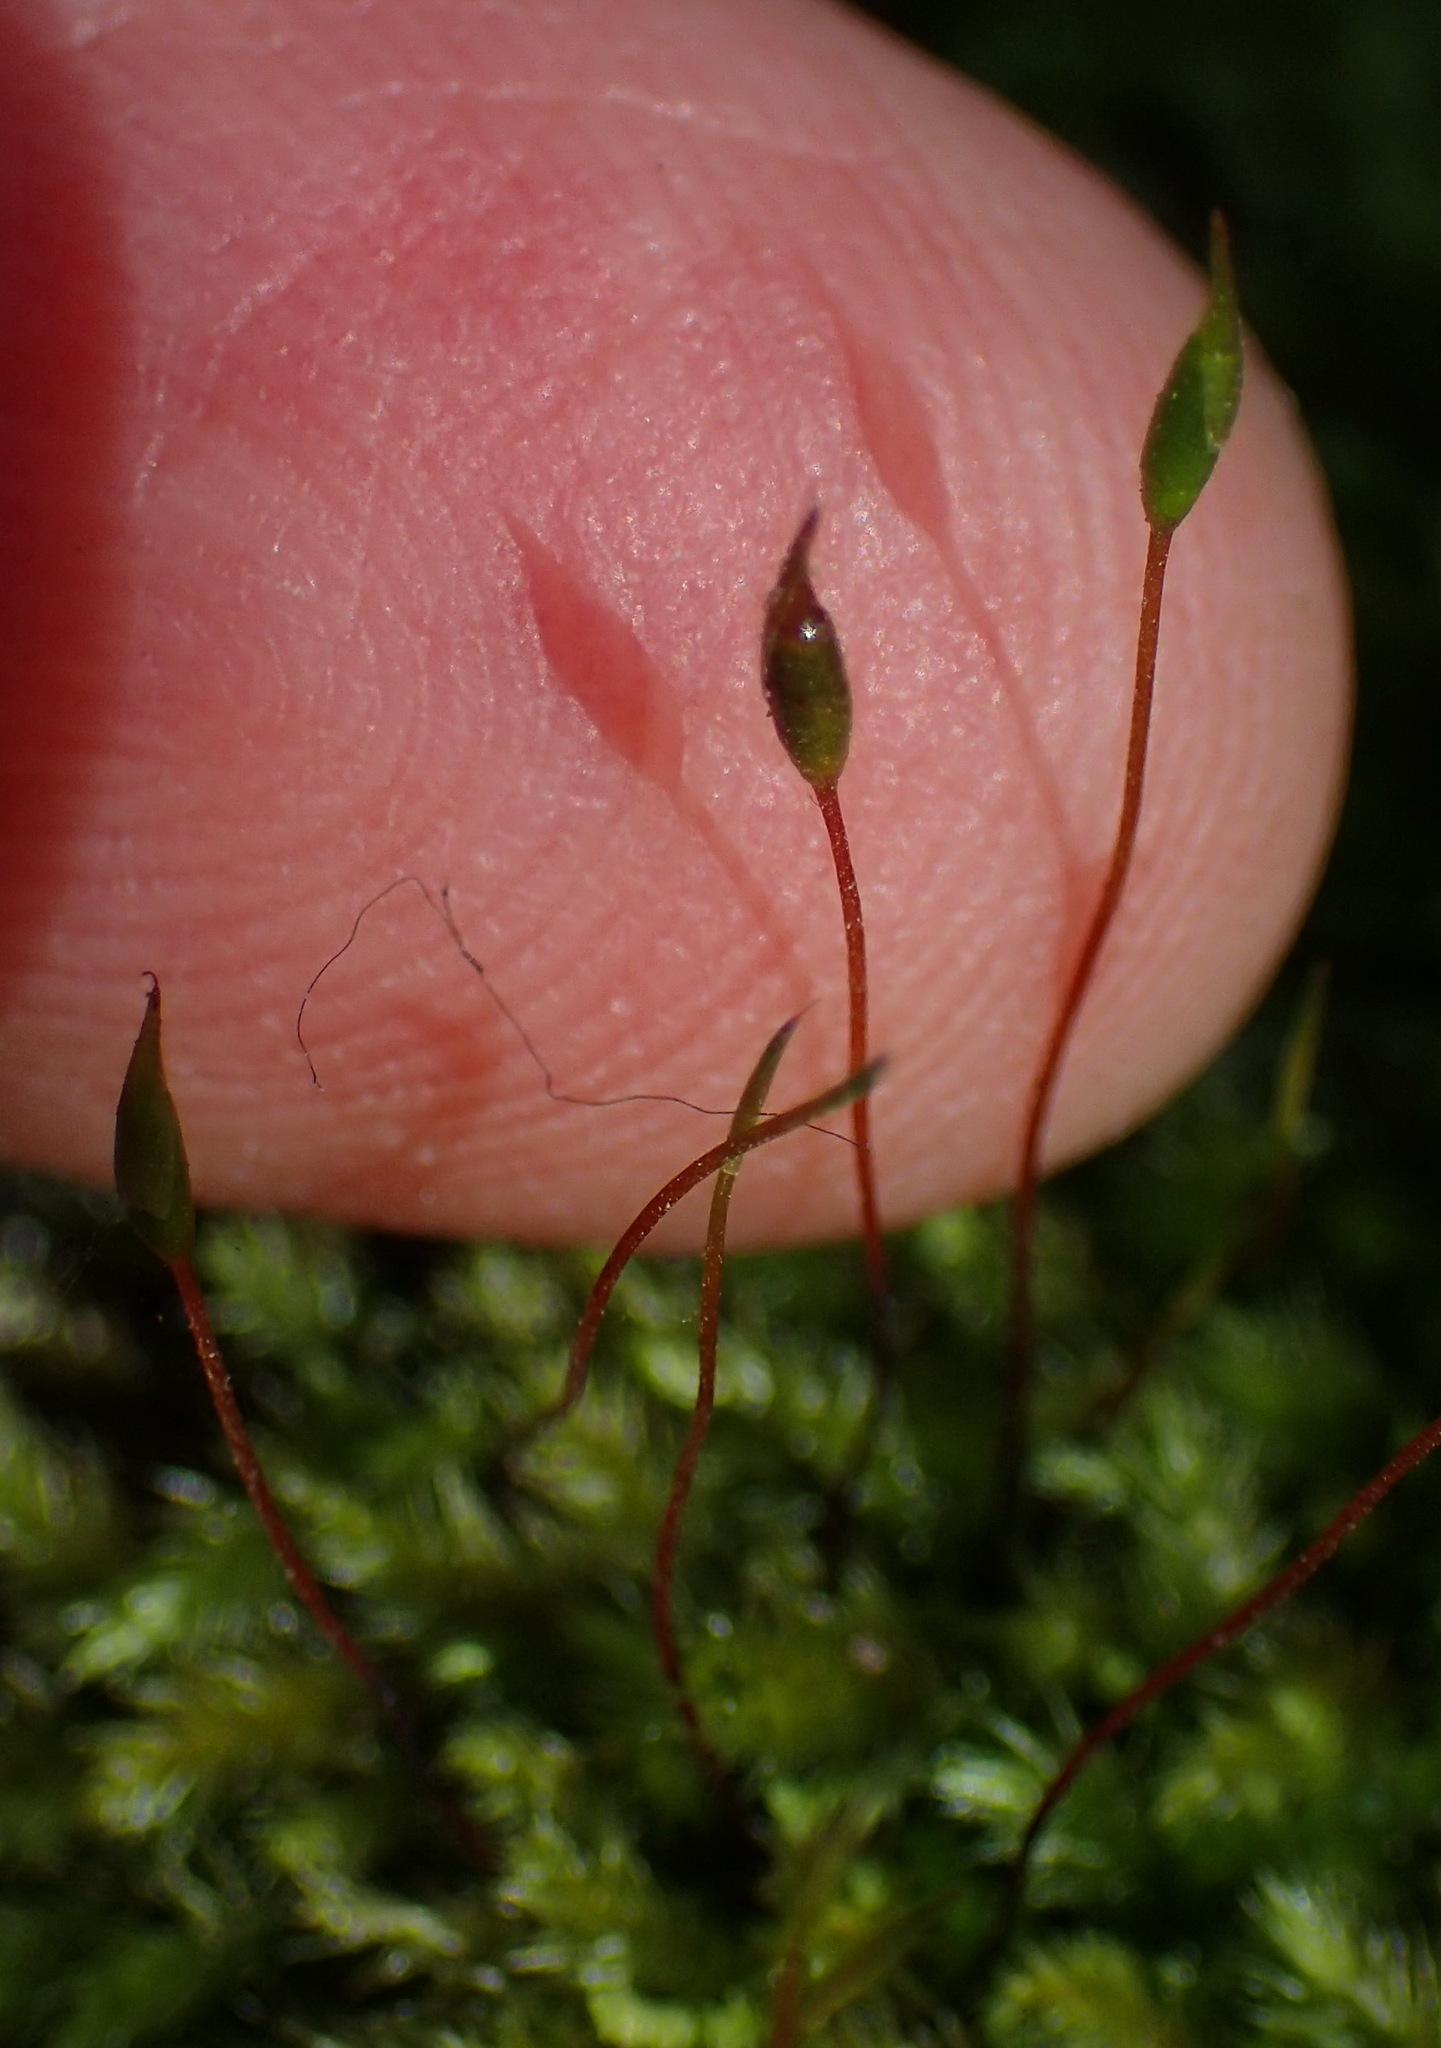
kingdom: Plantae
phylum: Bryophyta
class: Bryopsida
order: Hypnales
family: Brachytheciaceae
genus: Palamocladium
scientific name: Palamocladium leskeoides
